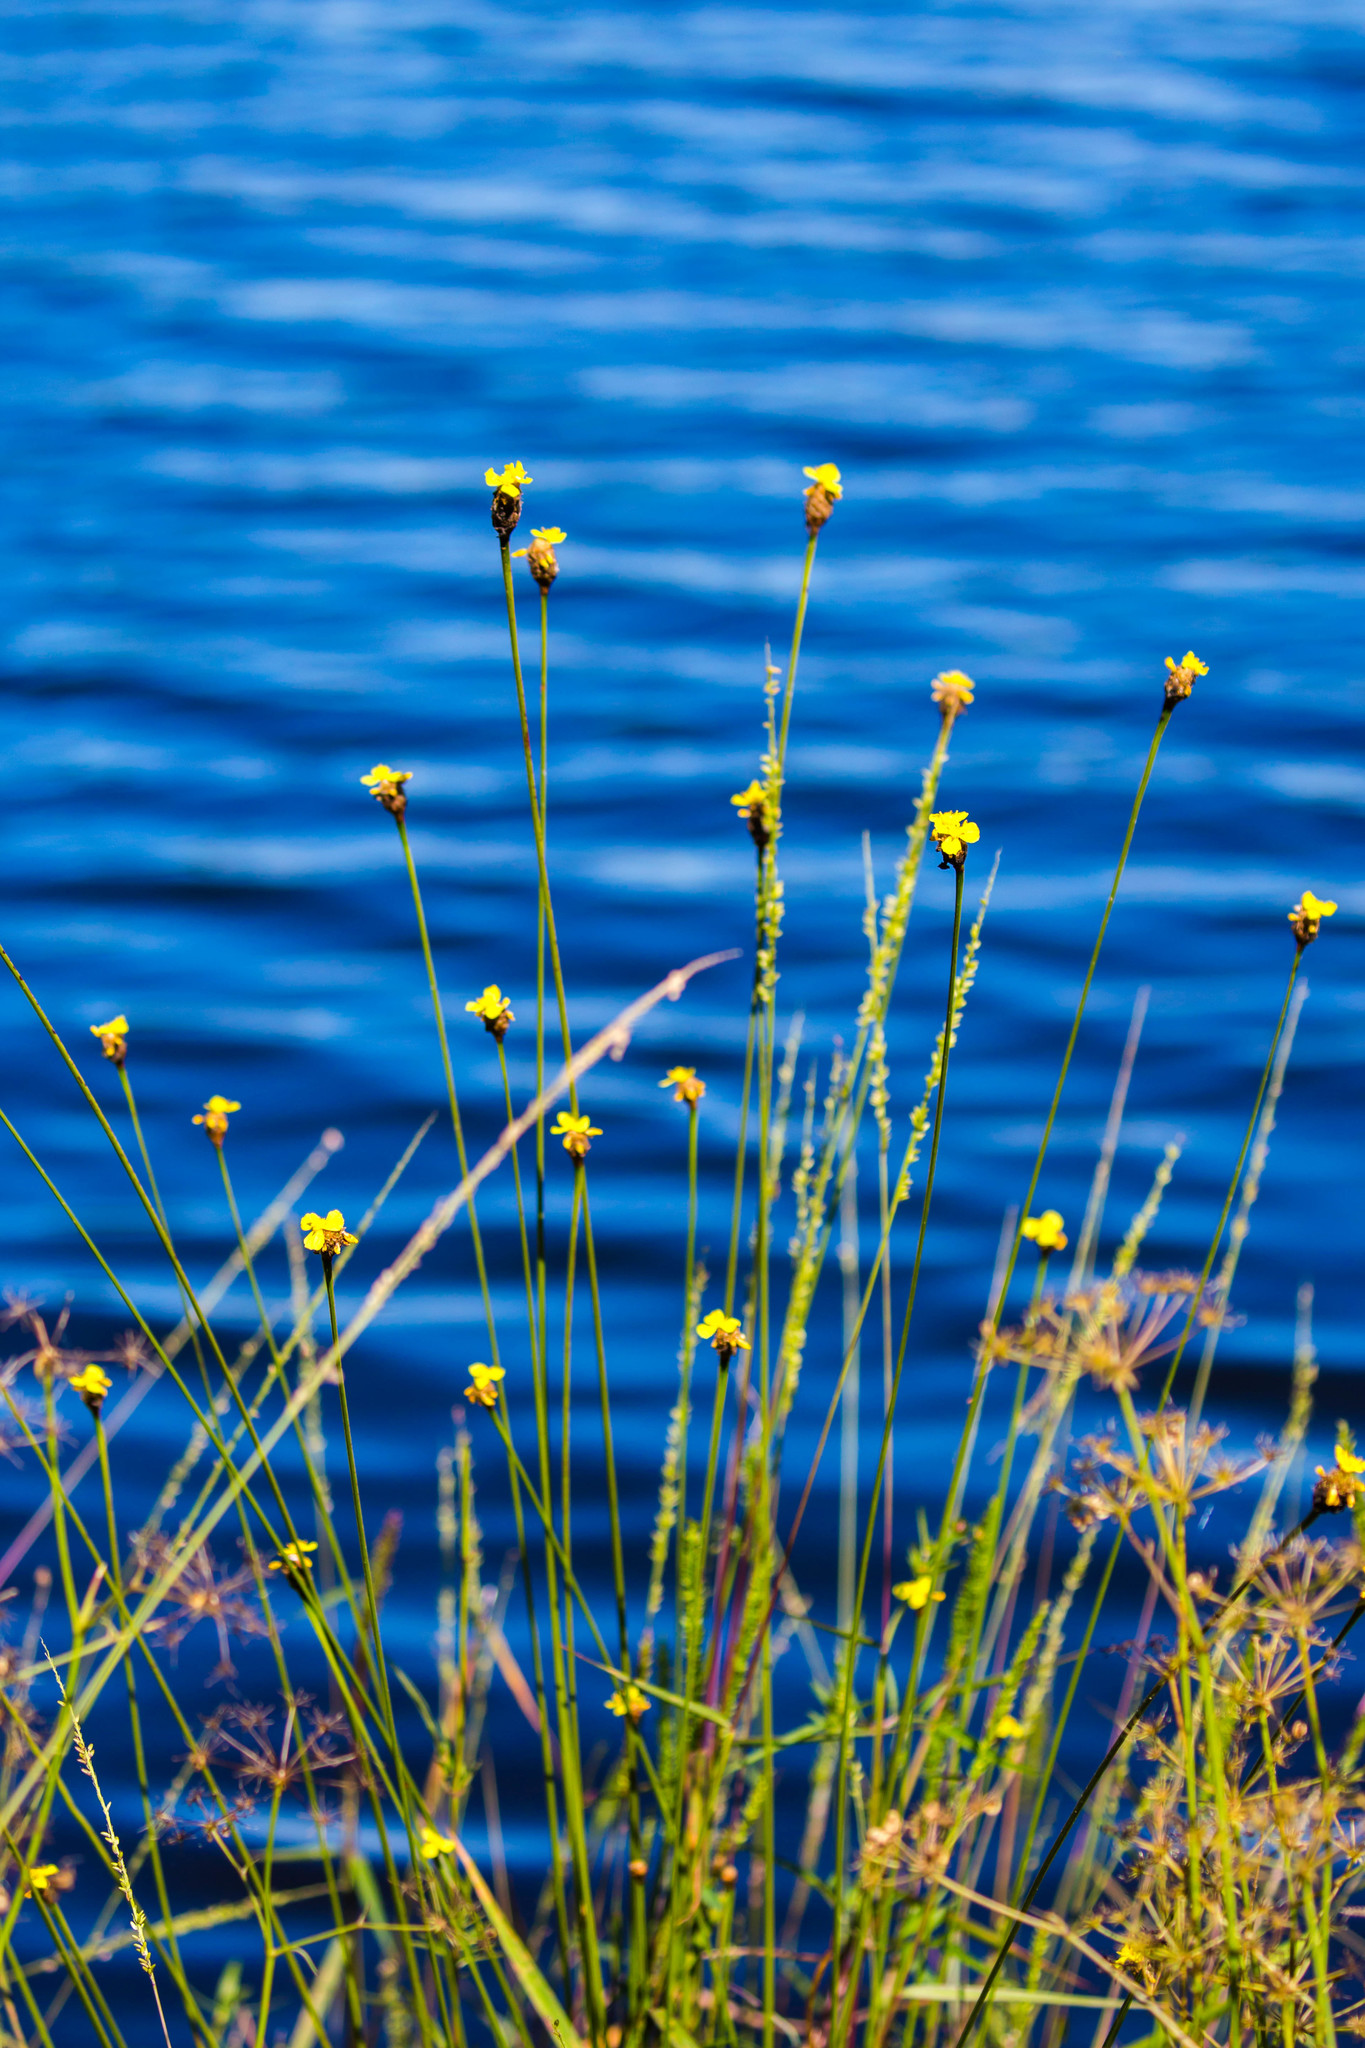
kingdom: Plantae
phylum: Tracheophyta
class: Liliopsida
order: Poales
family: Xyridaceae
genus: Xyris
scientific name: Xyris fimbriata
